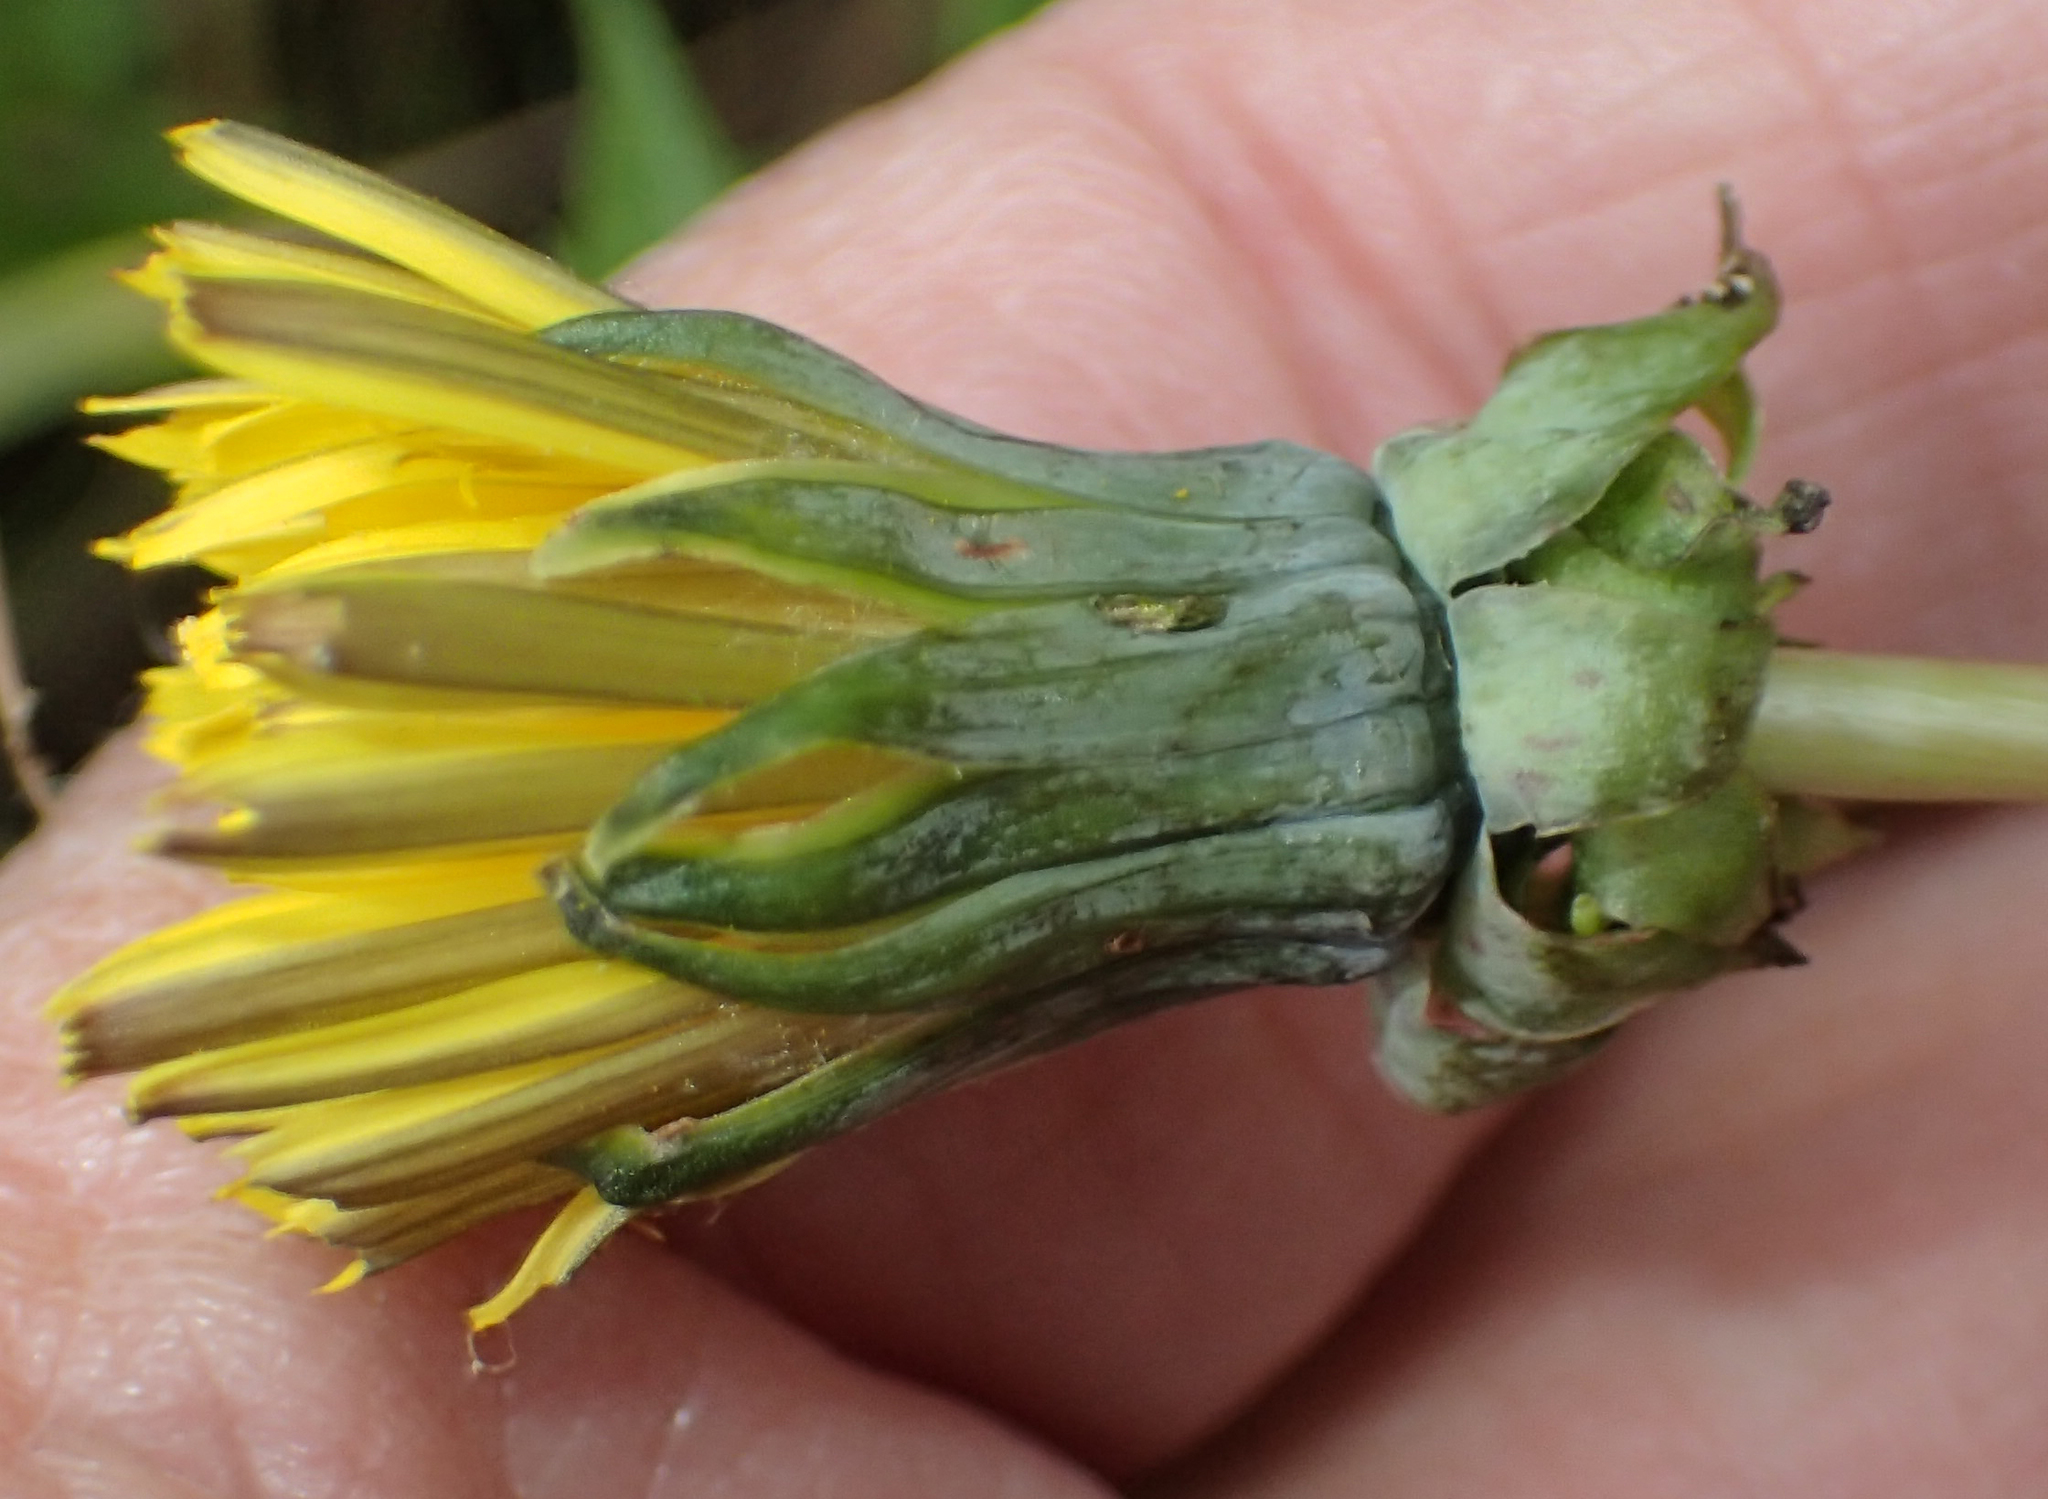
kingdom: Plantae
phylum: Tracheophyta
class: Magnoliopsida
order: Asterales
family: Asteraceae
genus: Taraxacum
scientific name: Taraxacum officinale
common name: Common dandelion
